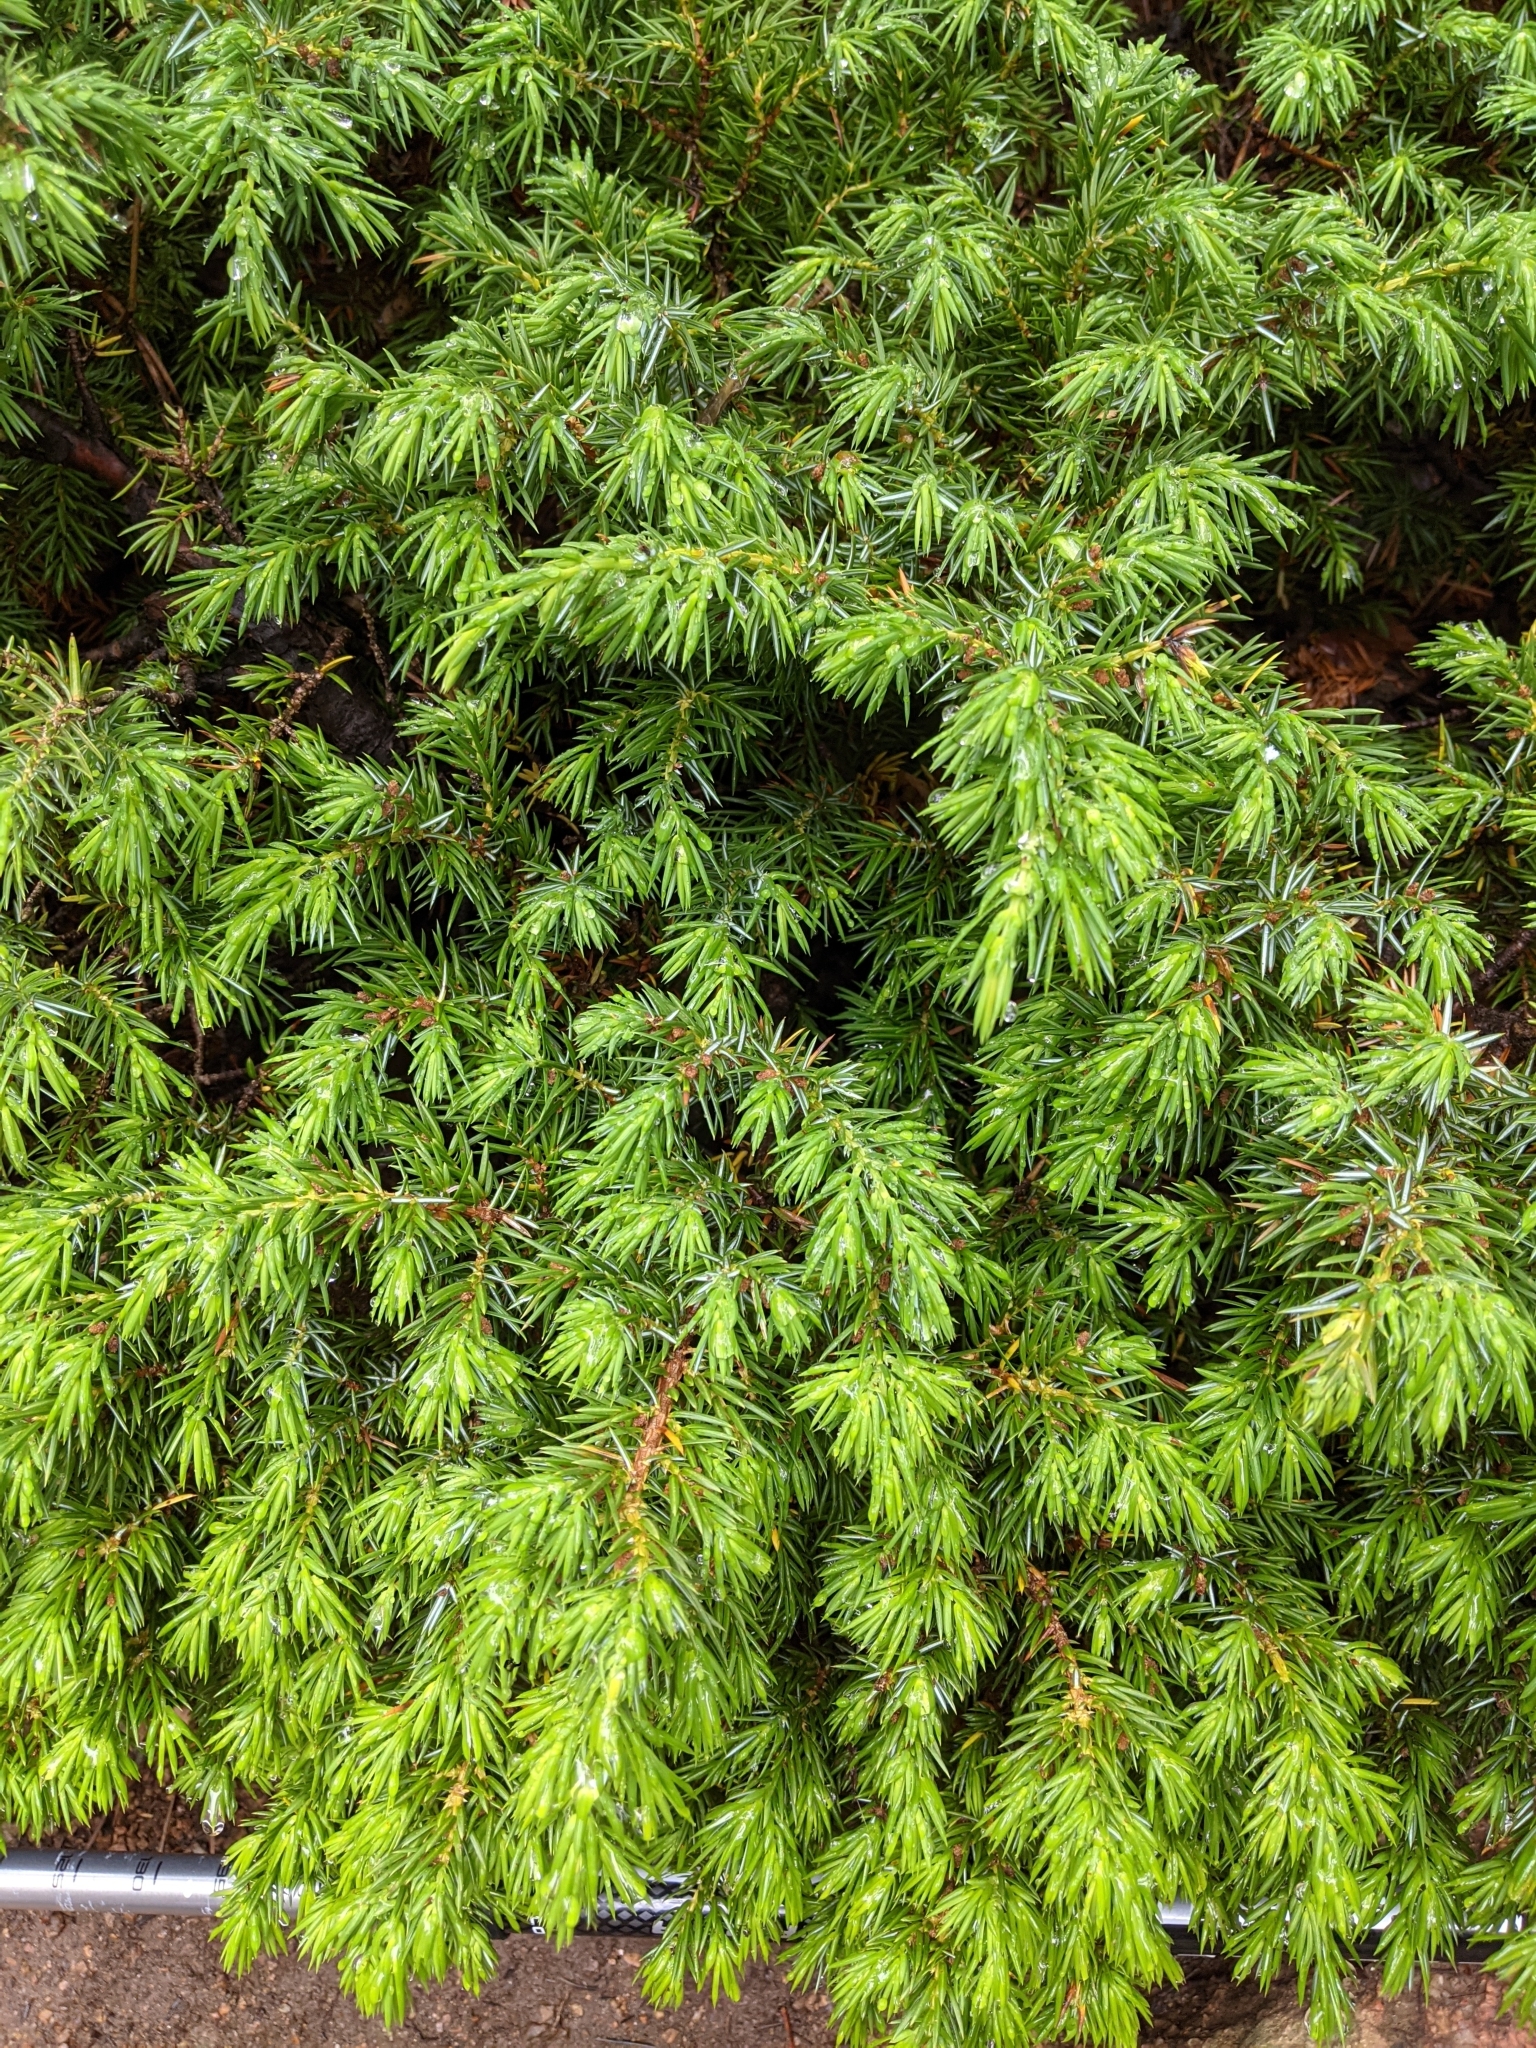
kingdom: Plantae
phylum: Tracheophyta
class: Pinopsida
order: Pinales
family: Cupressaceae
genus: Juniperus
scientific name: Juniperus communis
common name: Common juniper
